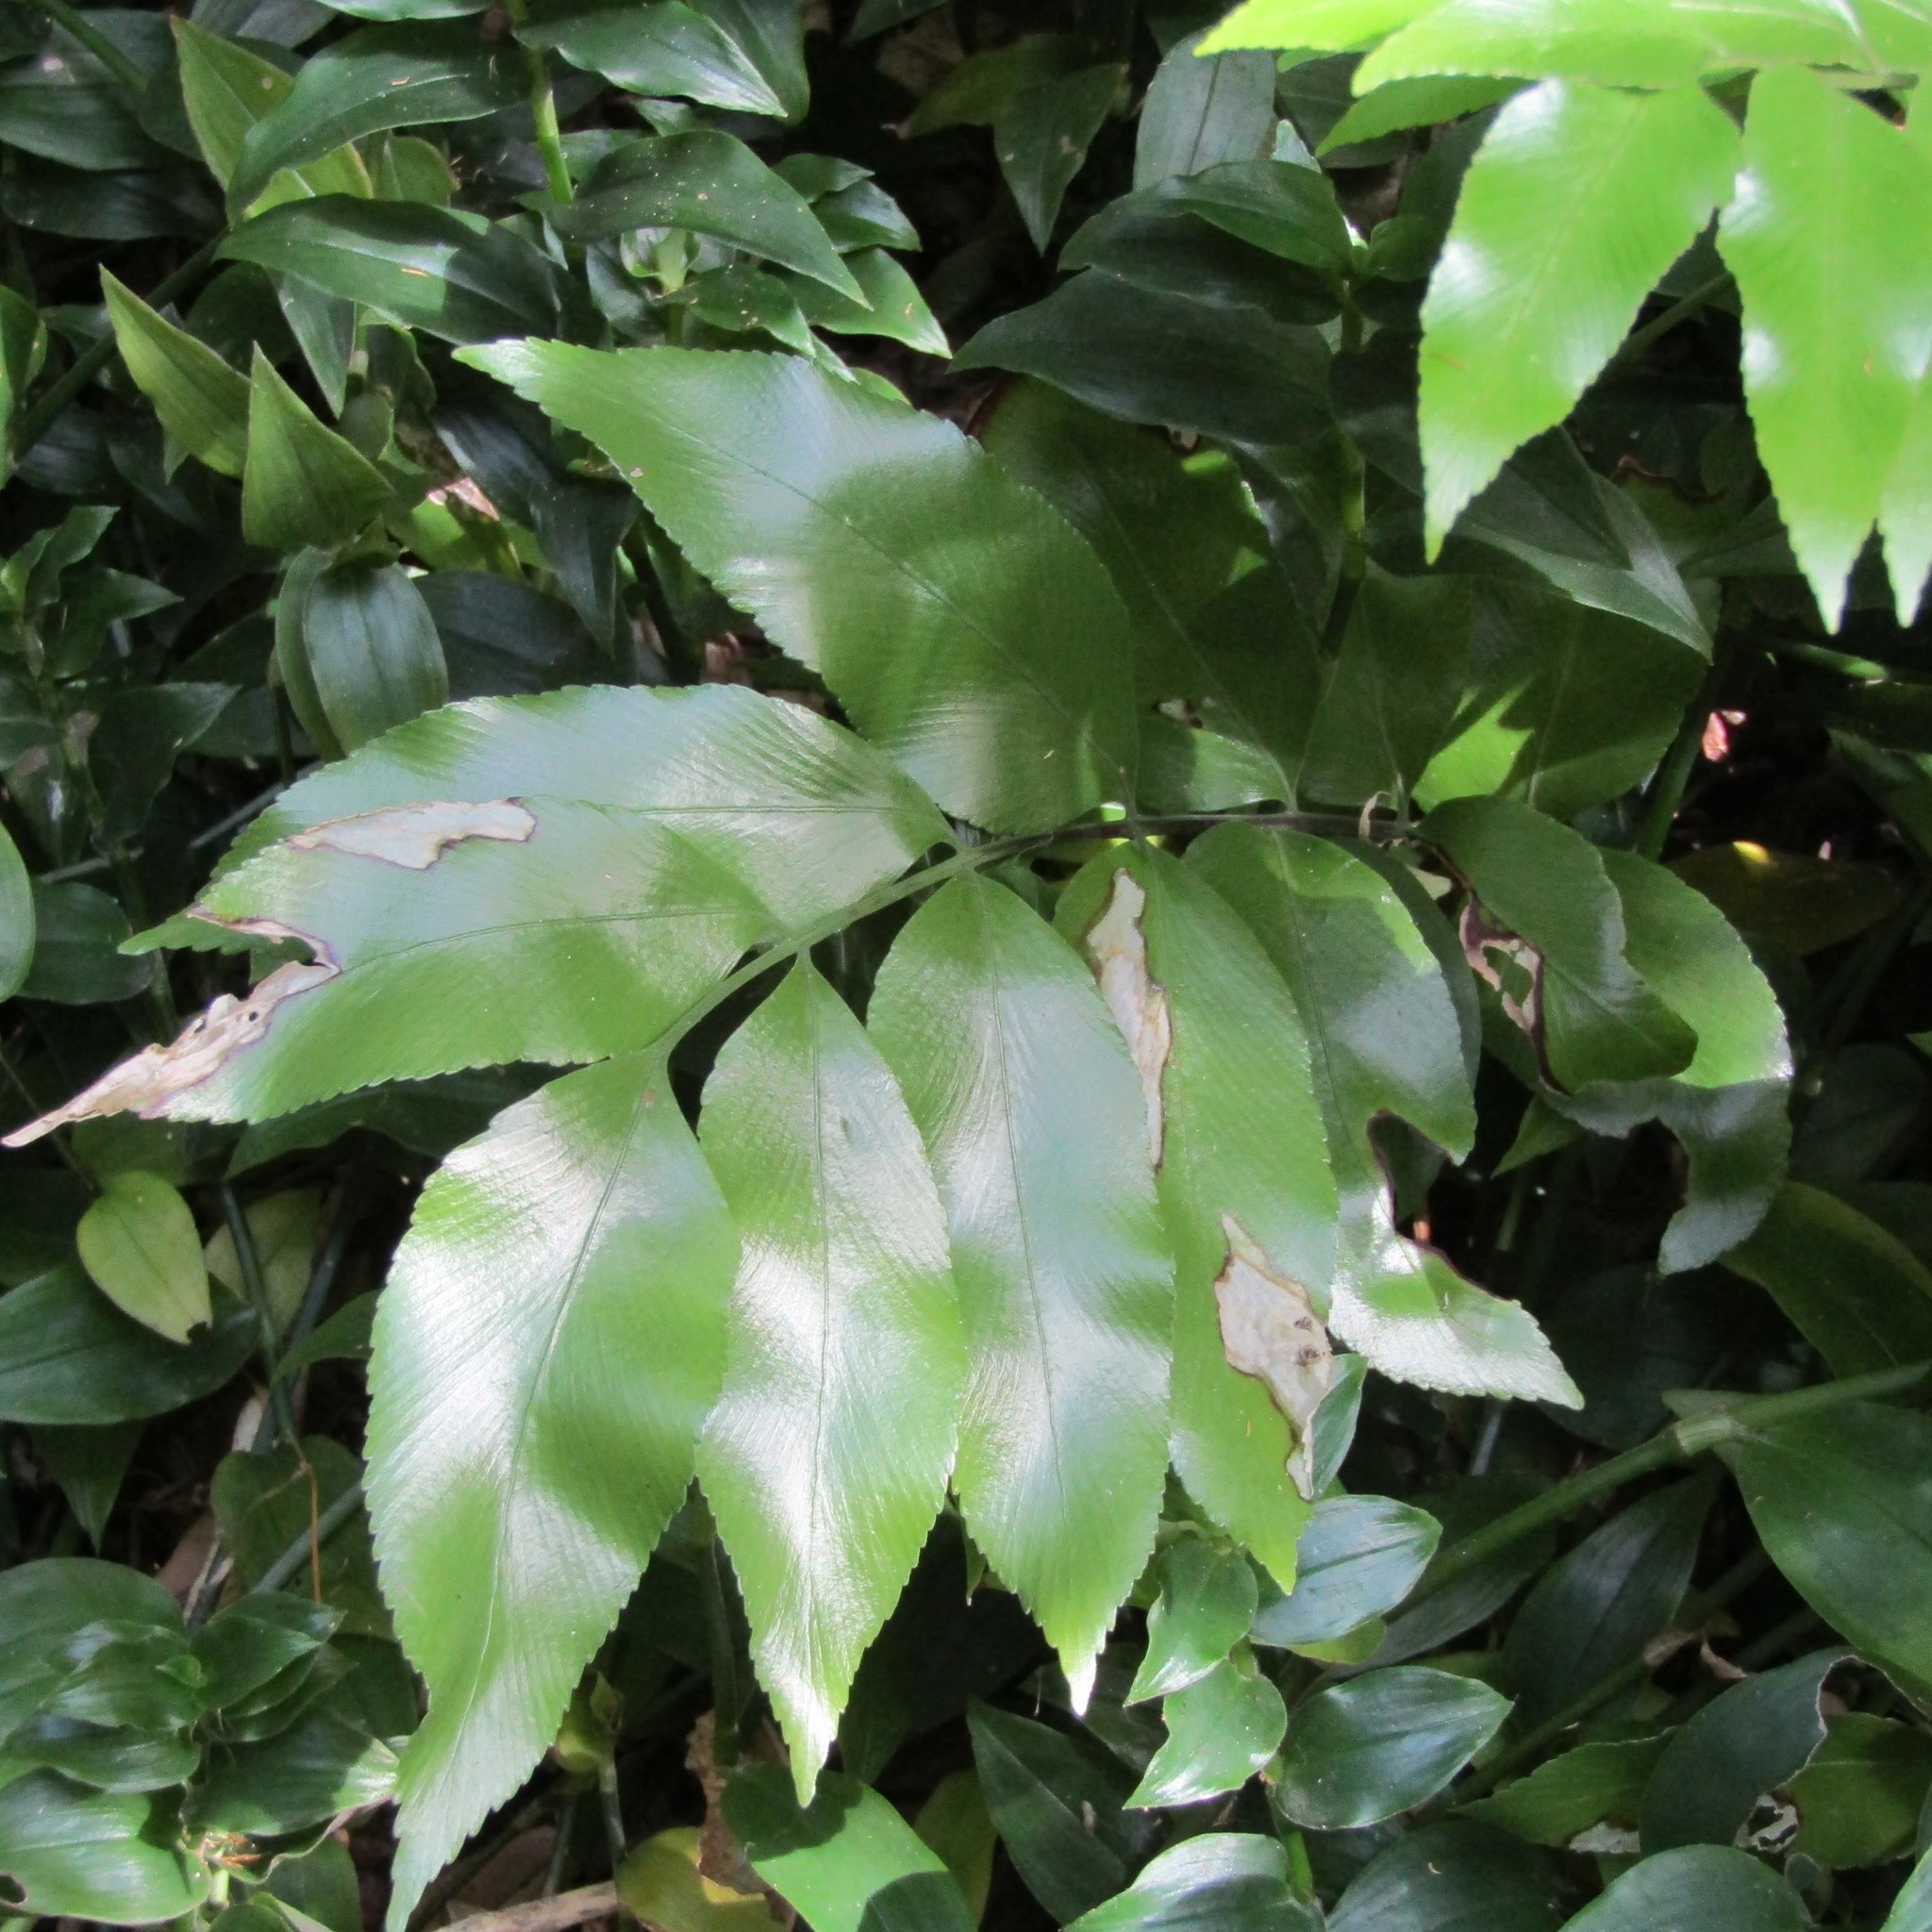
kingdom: Plantae
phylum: Tracheophyta
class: Polypodiopsida
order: Polypodiales
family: Aspleniaceae
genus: Asplenium
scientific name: Asplenium oblongifolium
